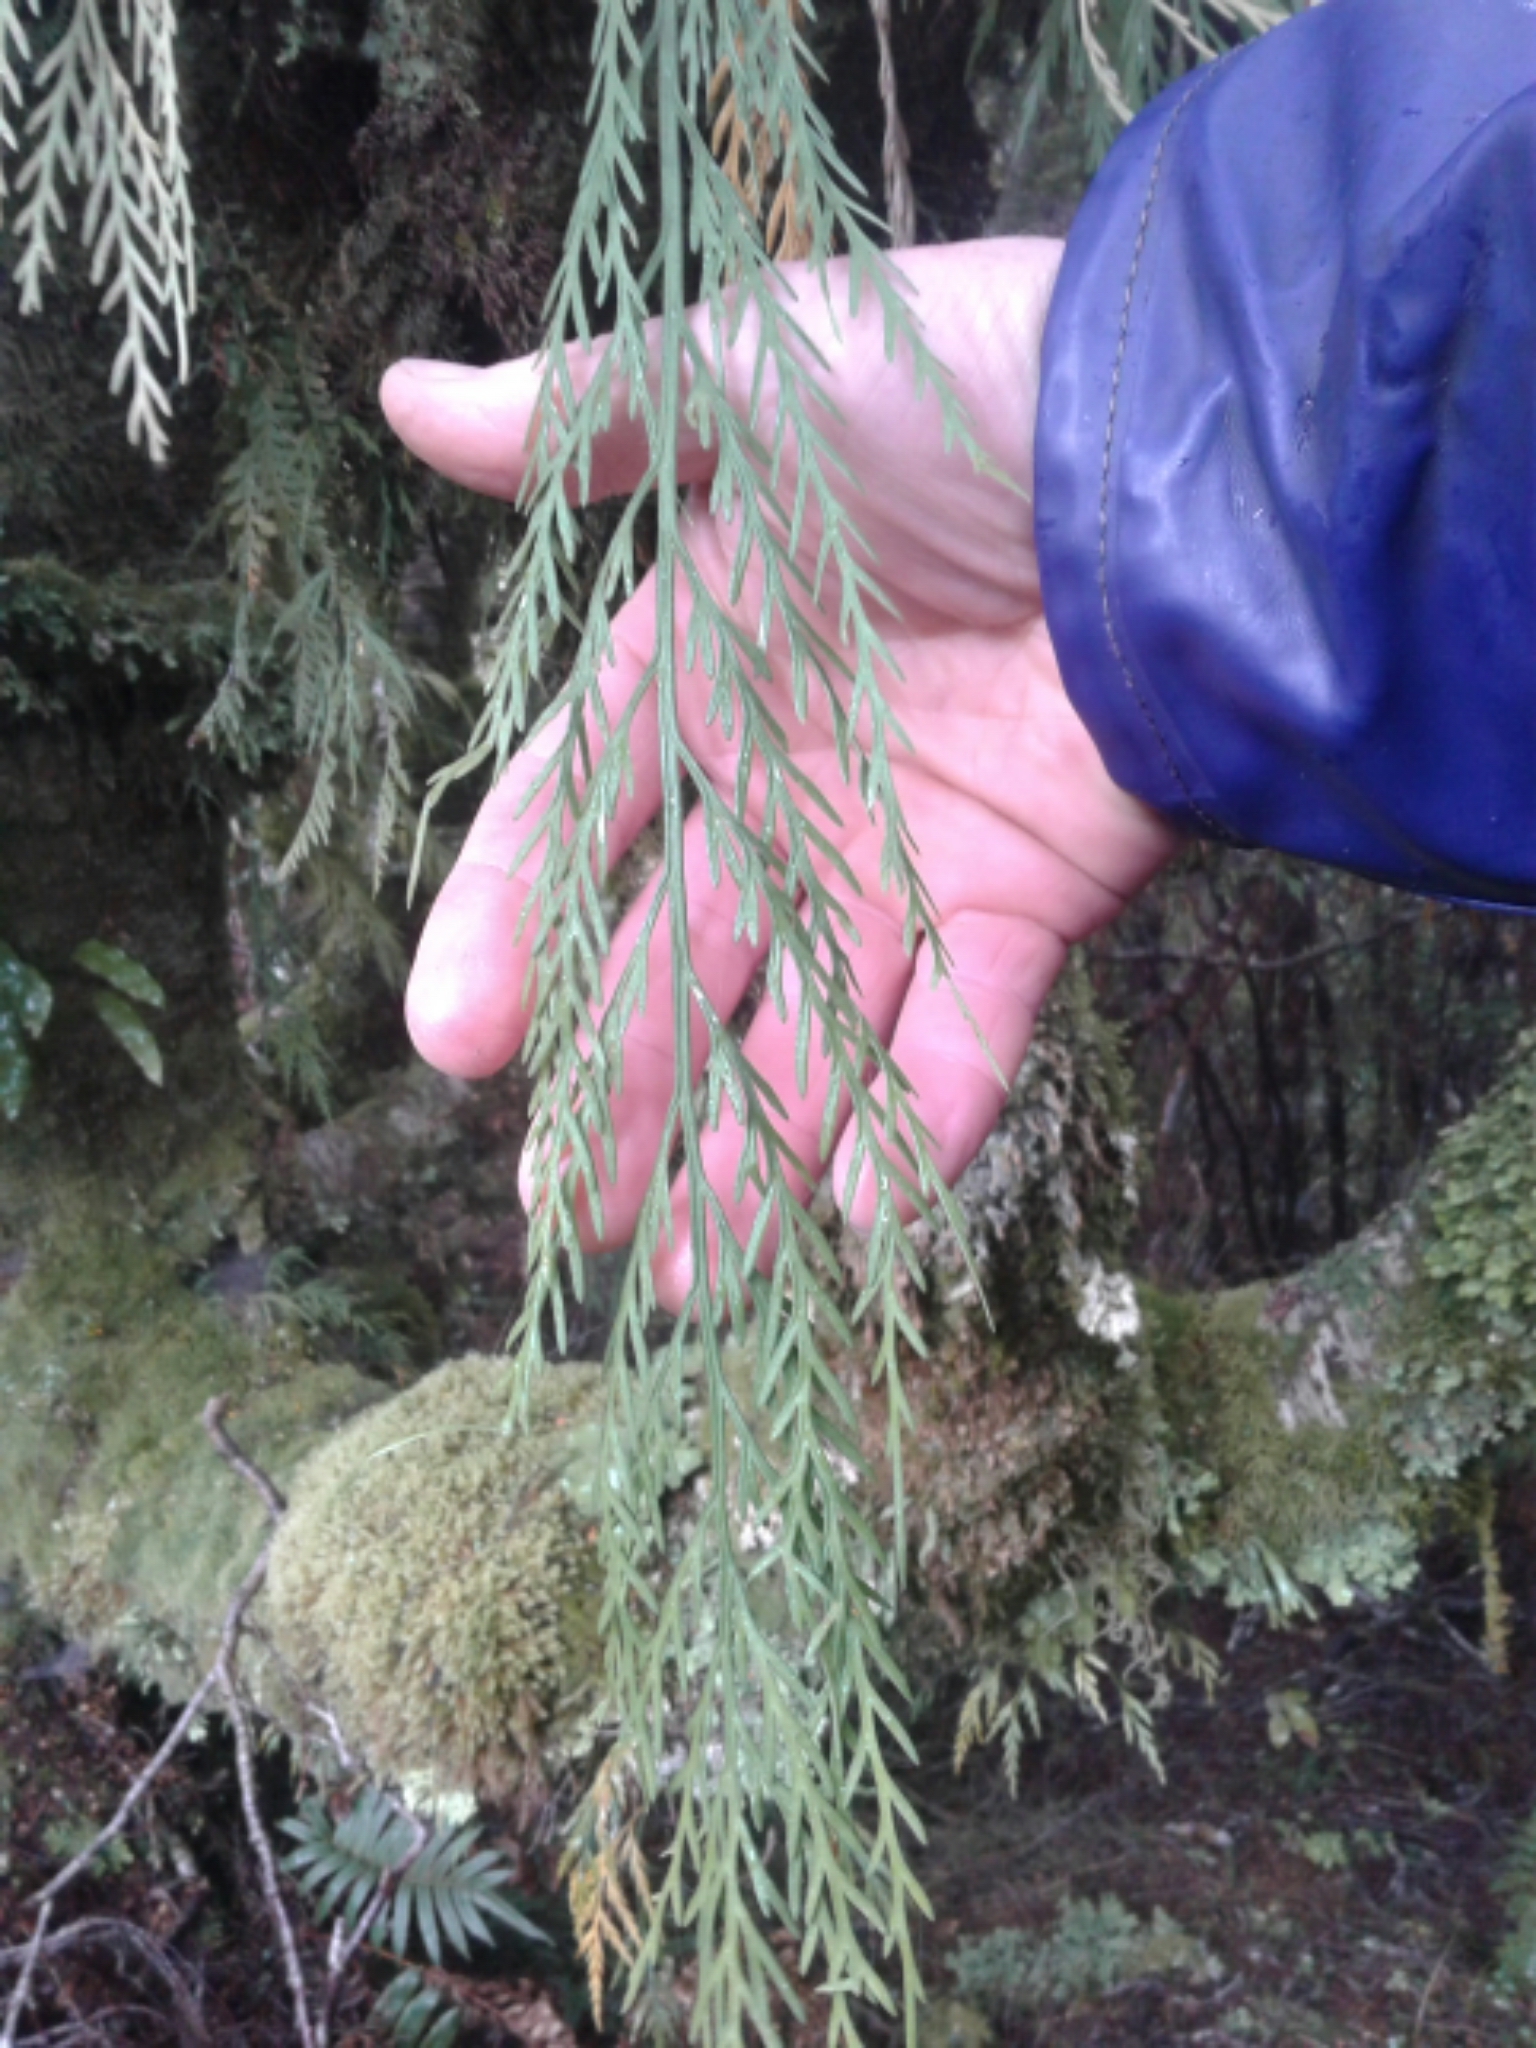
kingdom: Plantae
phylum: Tracheophyta
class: Polypodiopsida
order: Polypodiales
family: Aspleniaceae
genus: Asplenium
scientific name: Asplenium flaccidum
